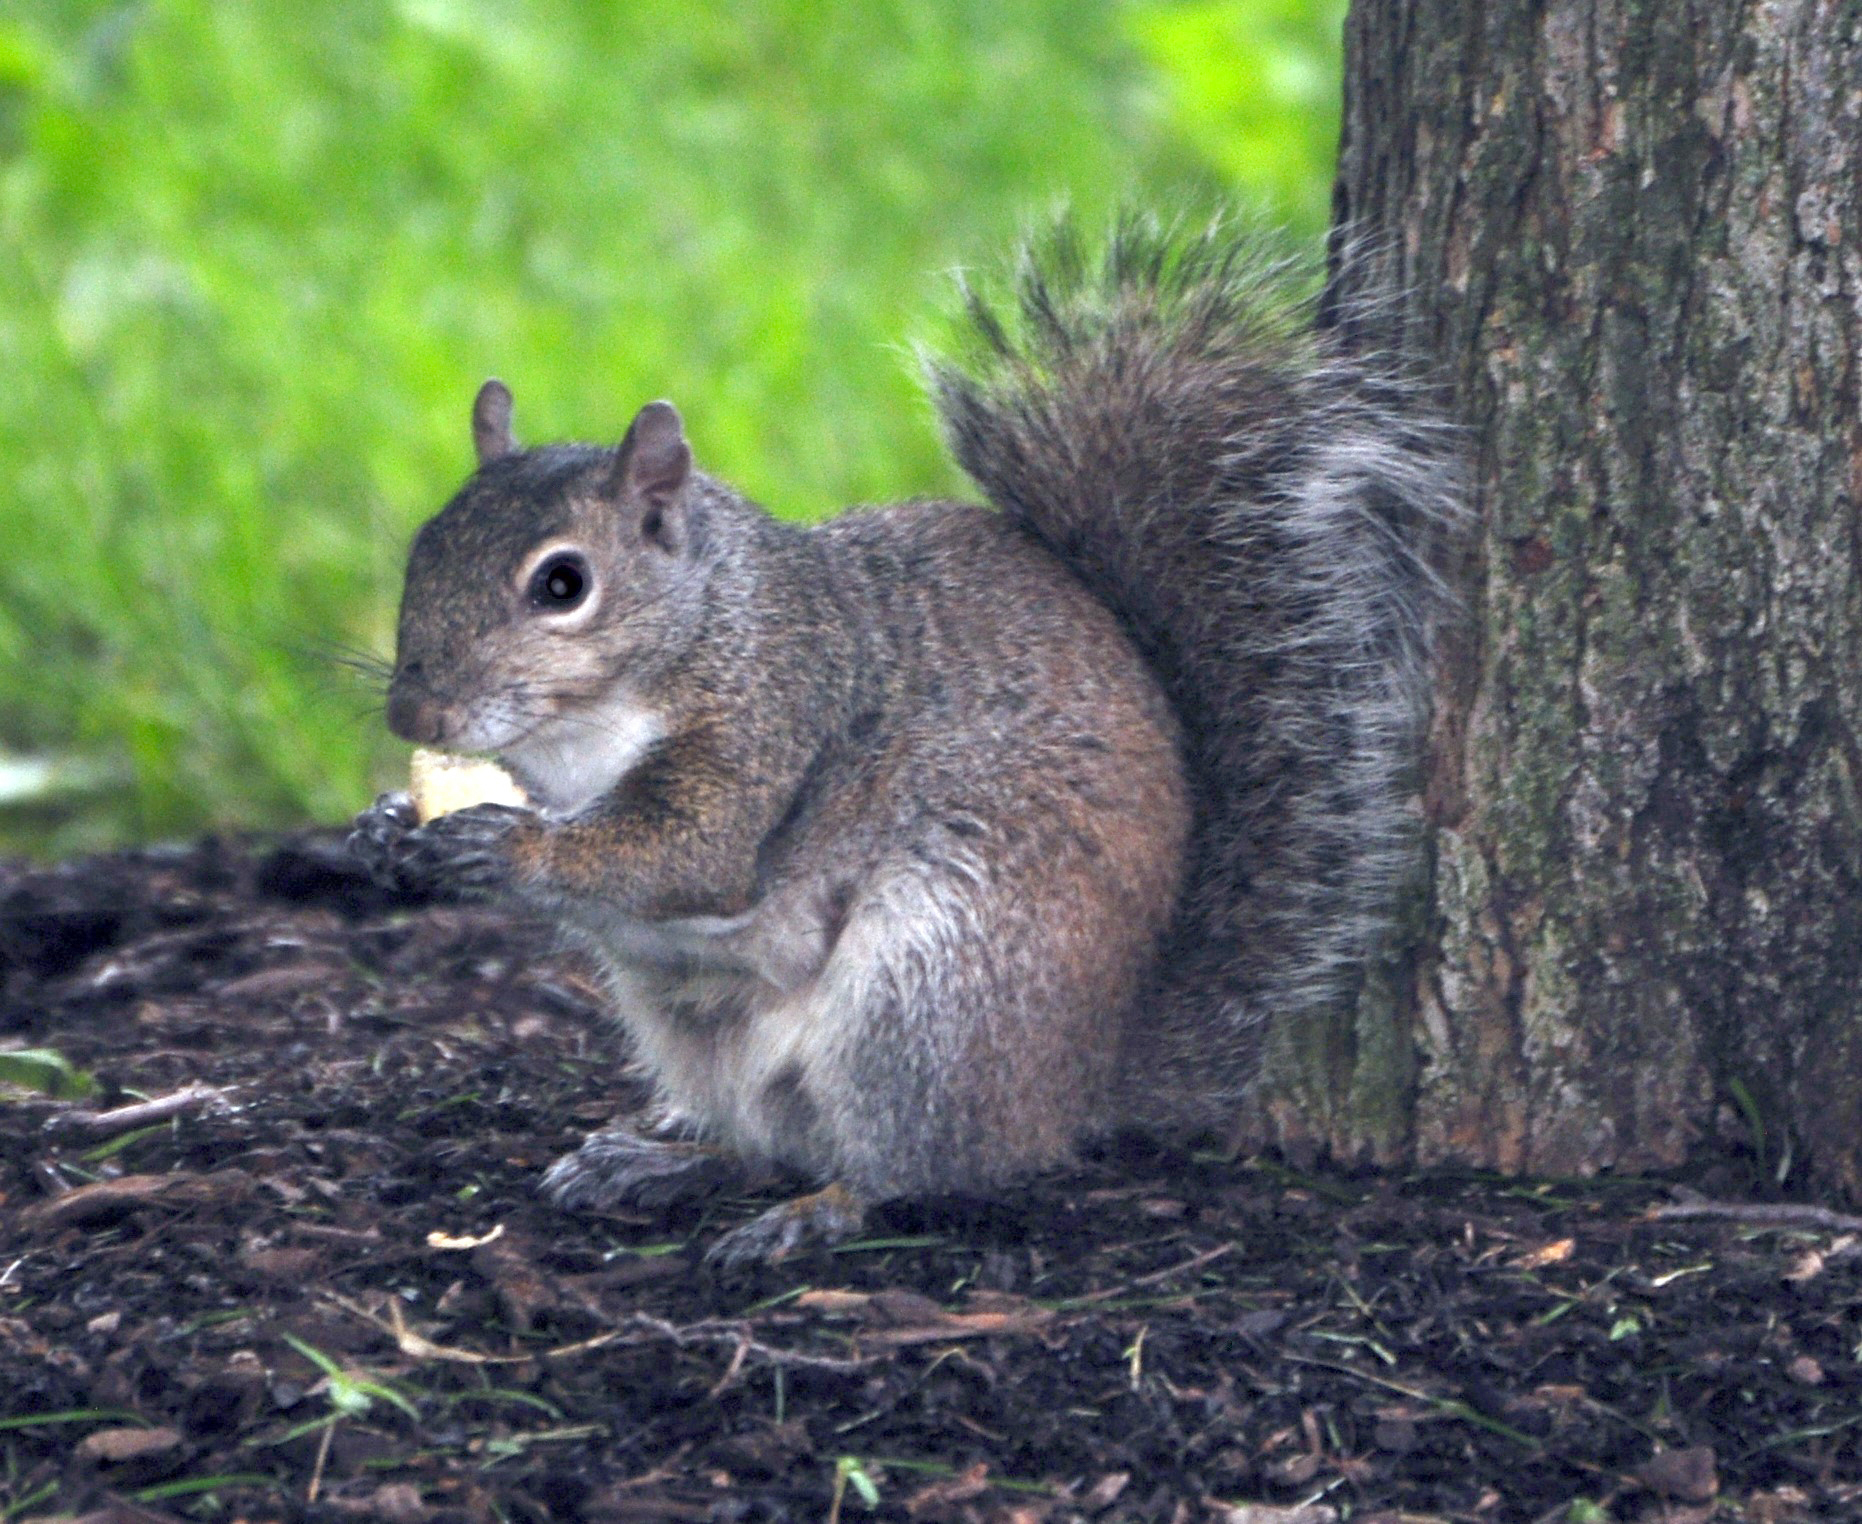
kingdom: Animalia
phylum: Chordata
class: Mammalia
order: Rodentia
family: Sciuridae
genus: Sciurus
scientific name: Sciurus carolinensis
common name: Eastern gray squirrel
